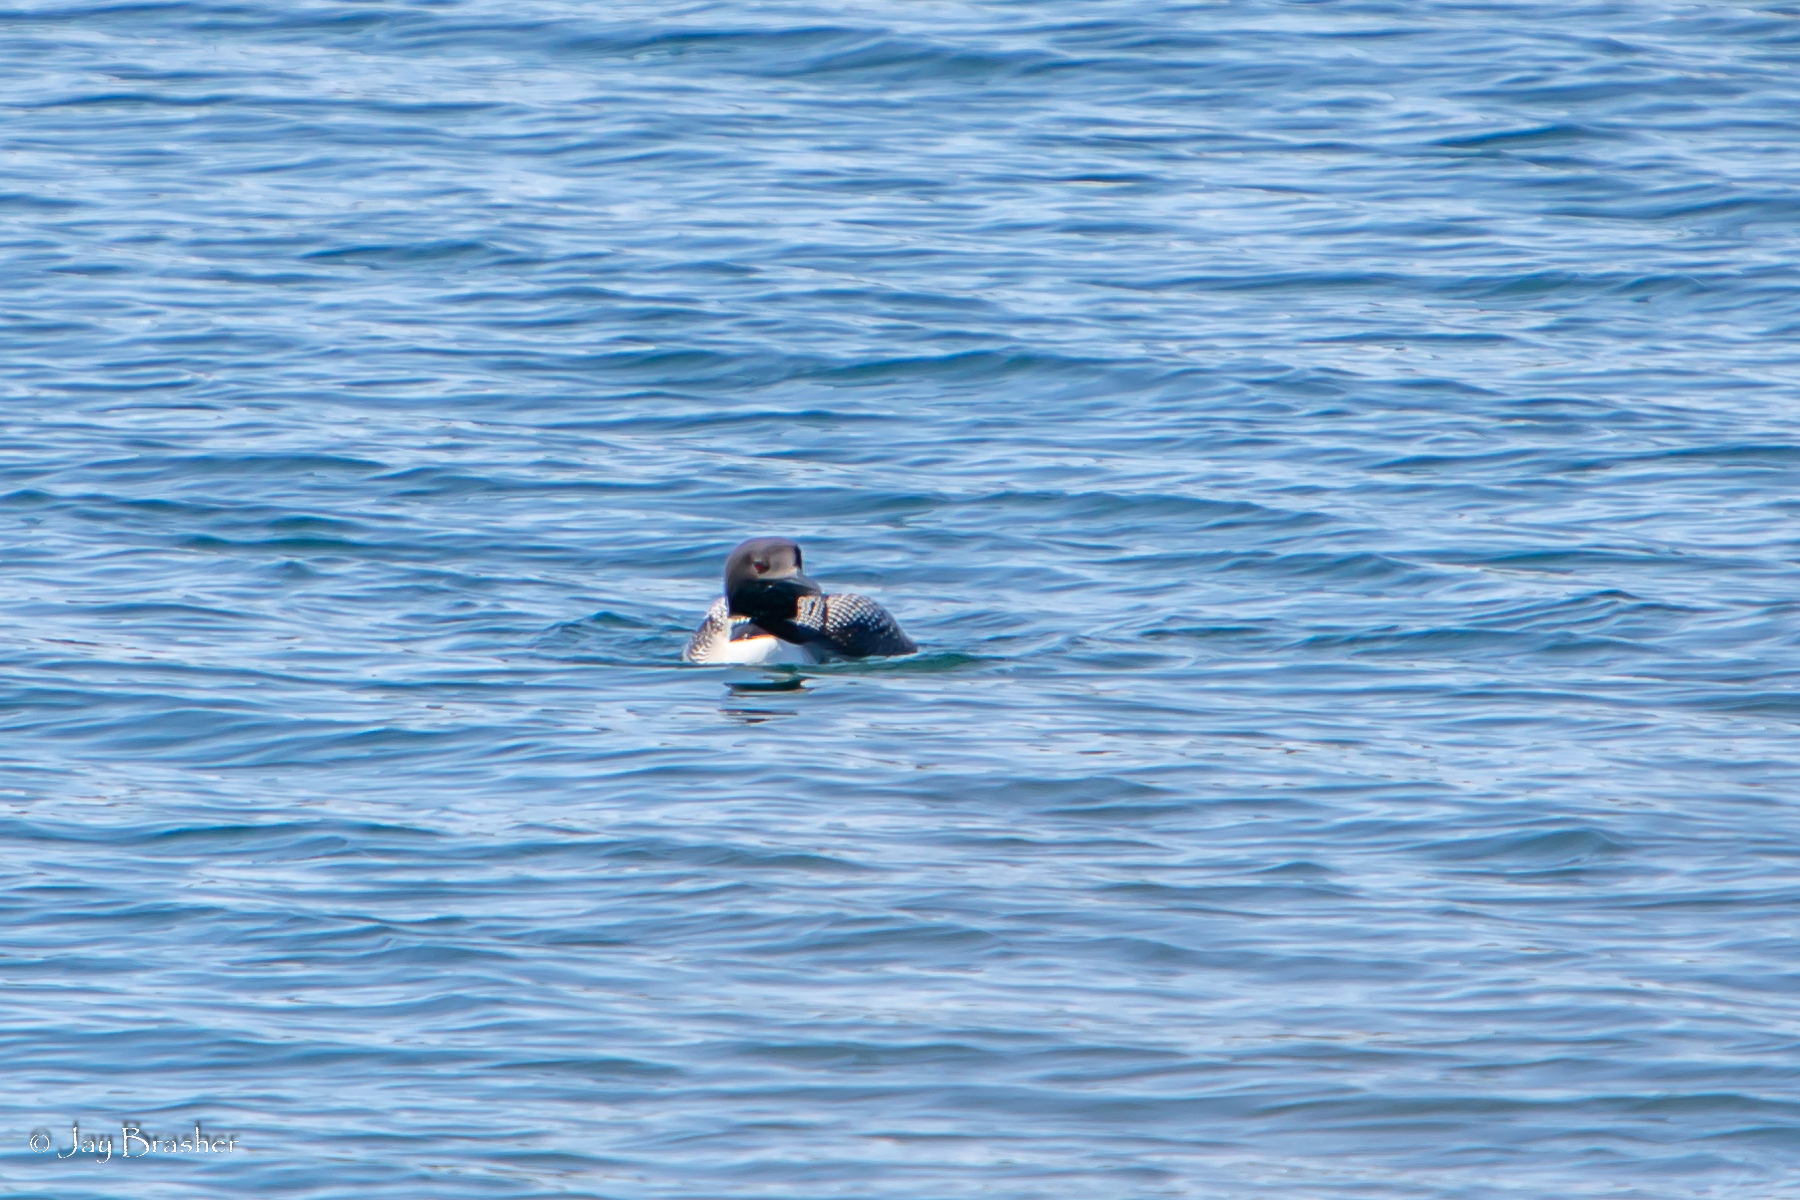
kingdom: Animalia
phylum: Chordata
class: Aves
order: Gaviiformes
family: Gaviidae
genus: Gavia
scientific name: Gavia immer
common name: Common loon
